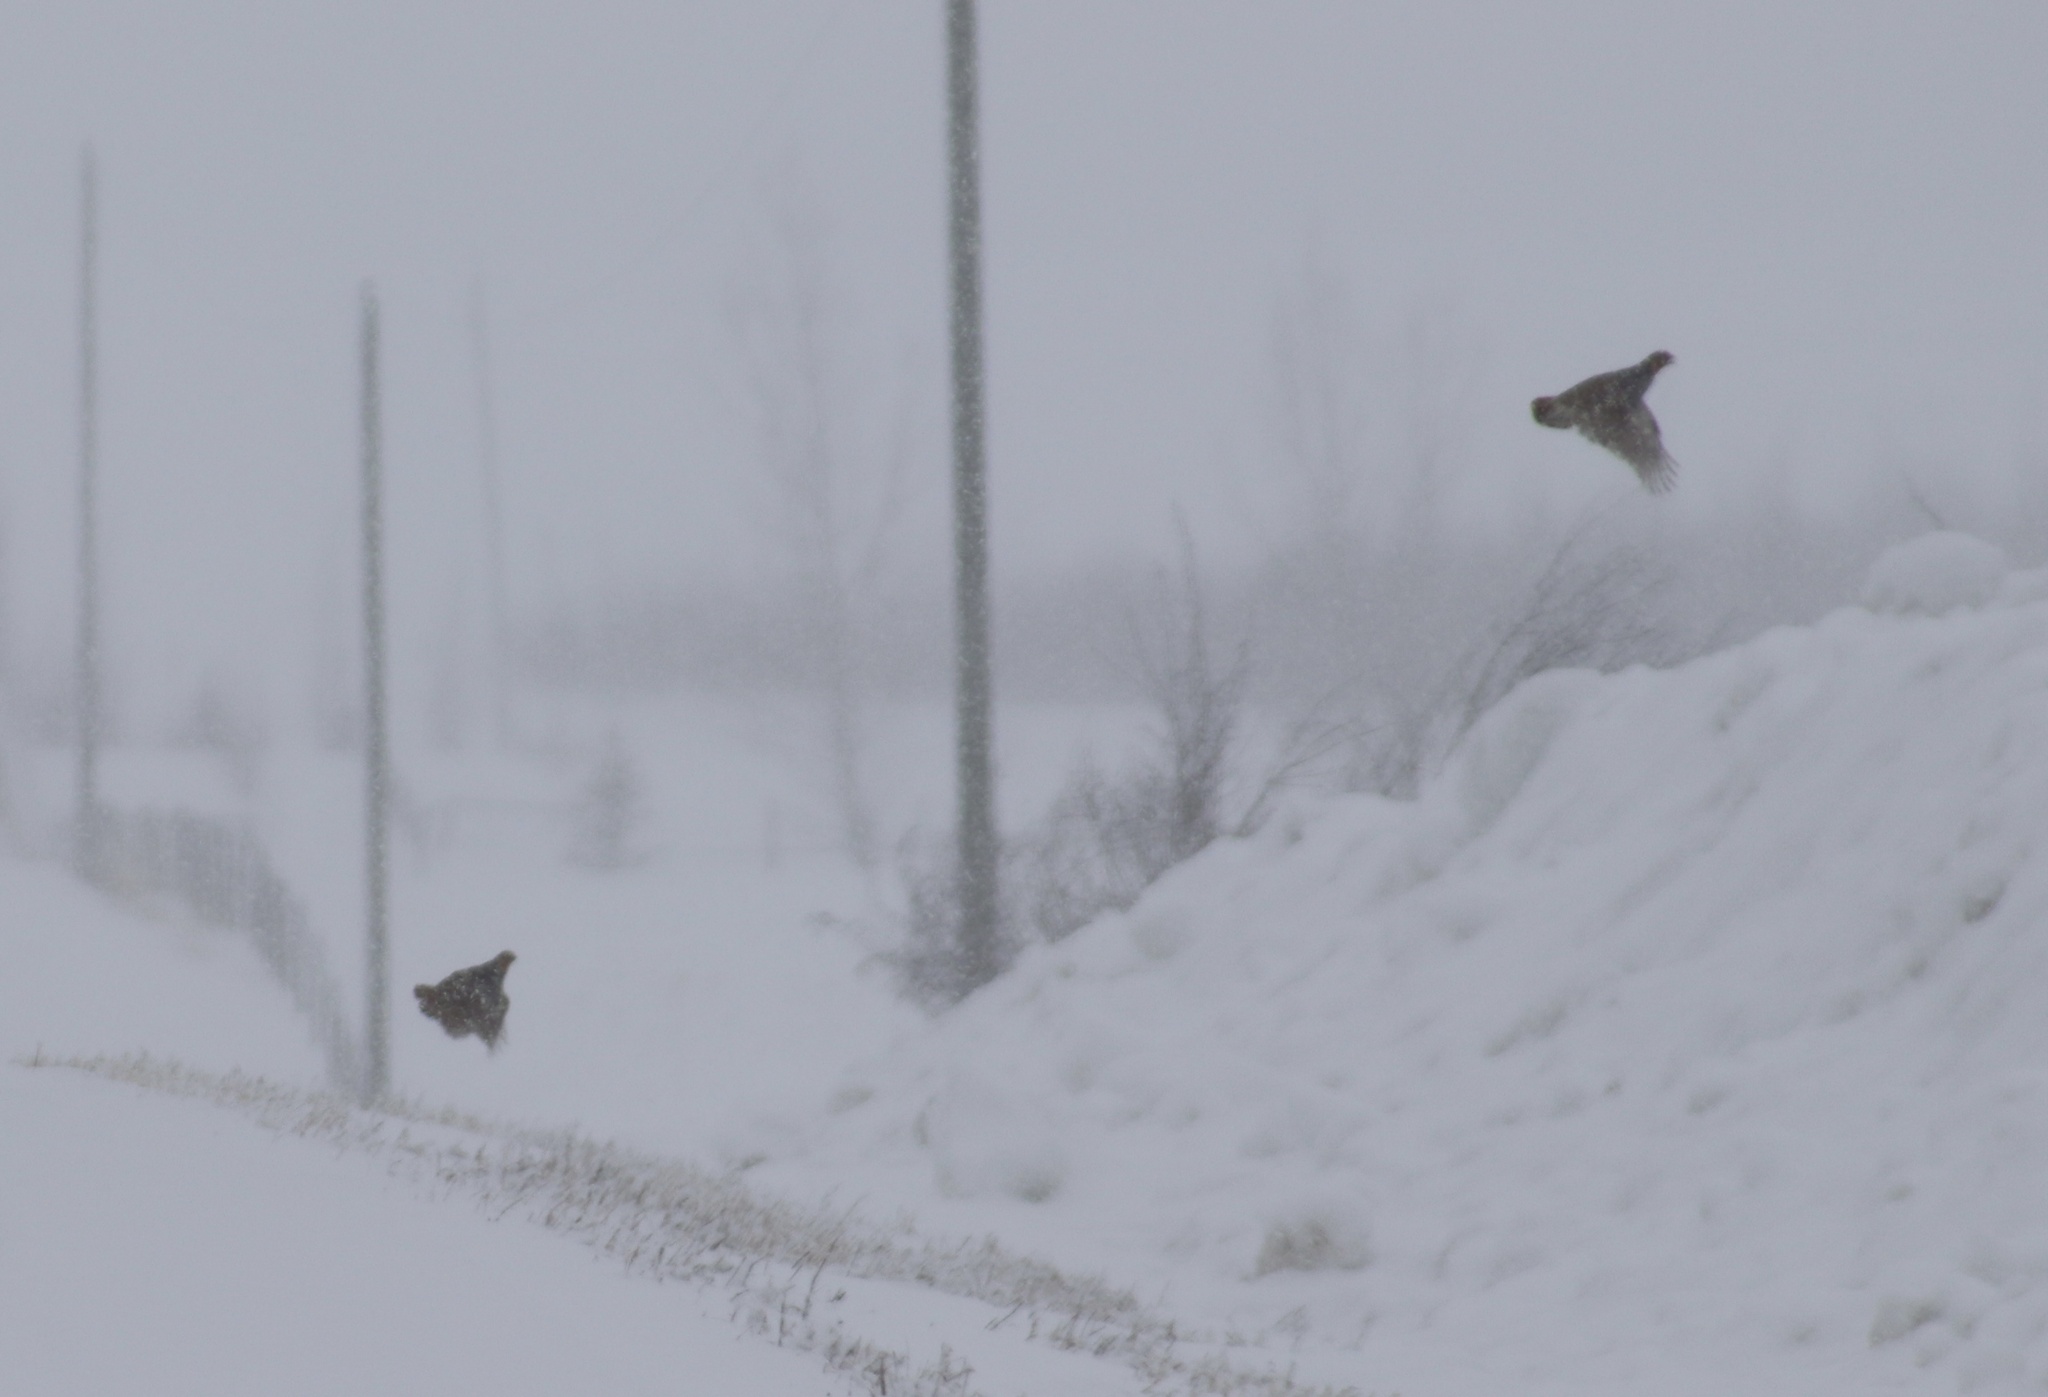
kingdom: Animalia
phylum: Chordata
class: Aves
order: Galliformes
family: Phasianidae
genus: Perdix
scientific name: Perdix perdix
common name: Grey partridge
